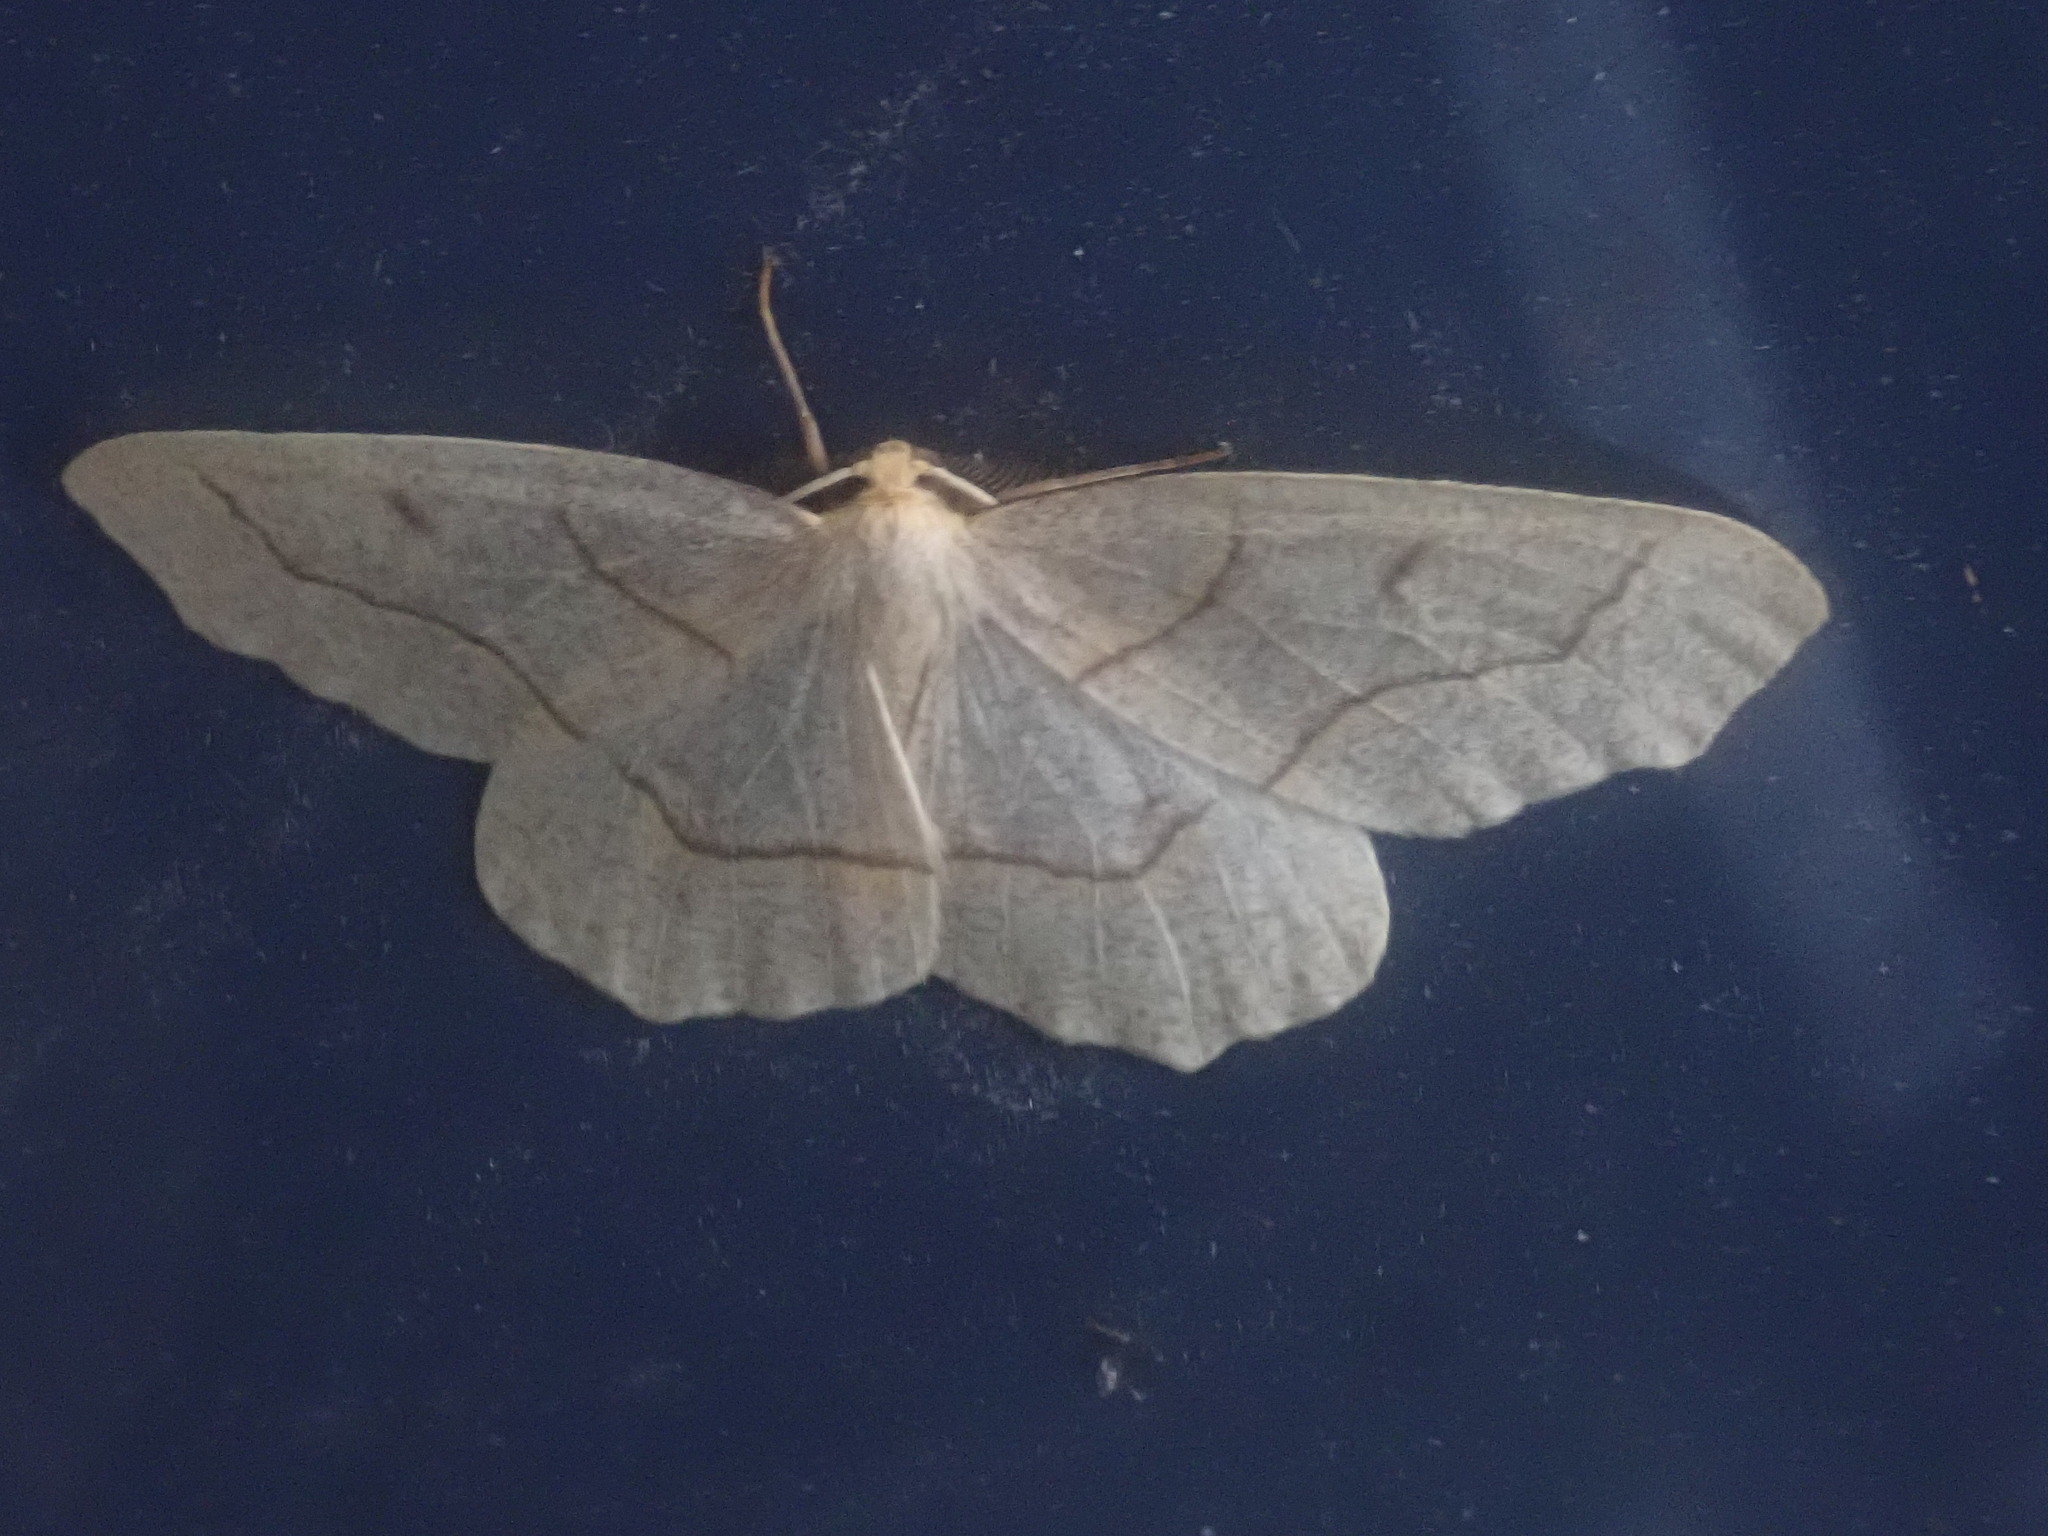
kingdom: Animalia
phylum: Arthropoda
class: Insecta
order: Lepidoptera
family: Geometridae
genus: Lambdina
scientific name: Lambdina fiscellaria
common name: Hemlock looper
